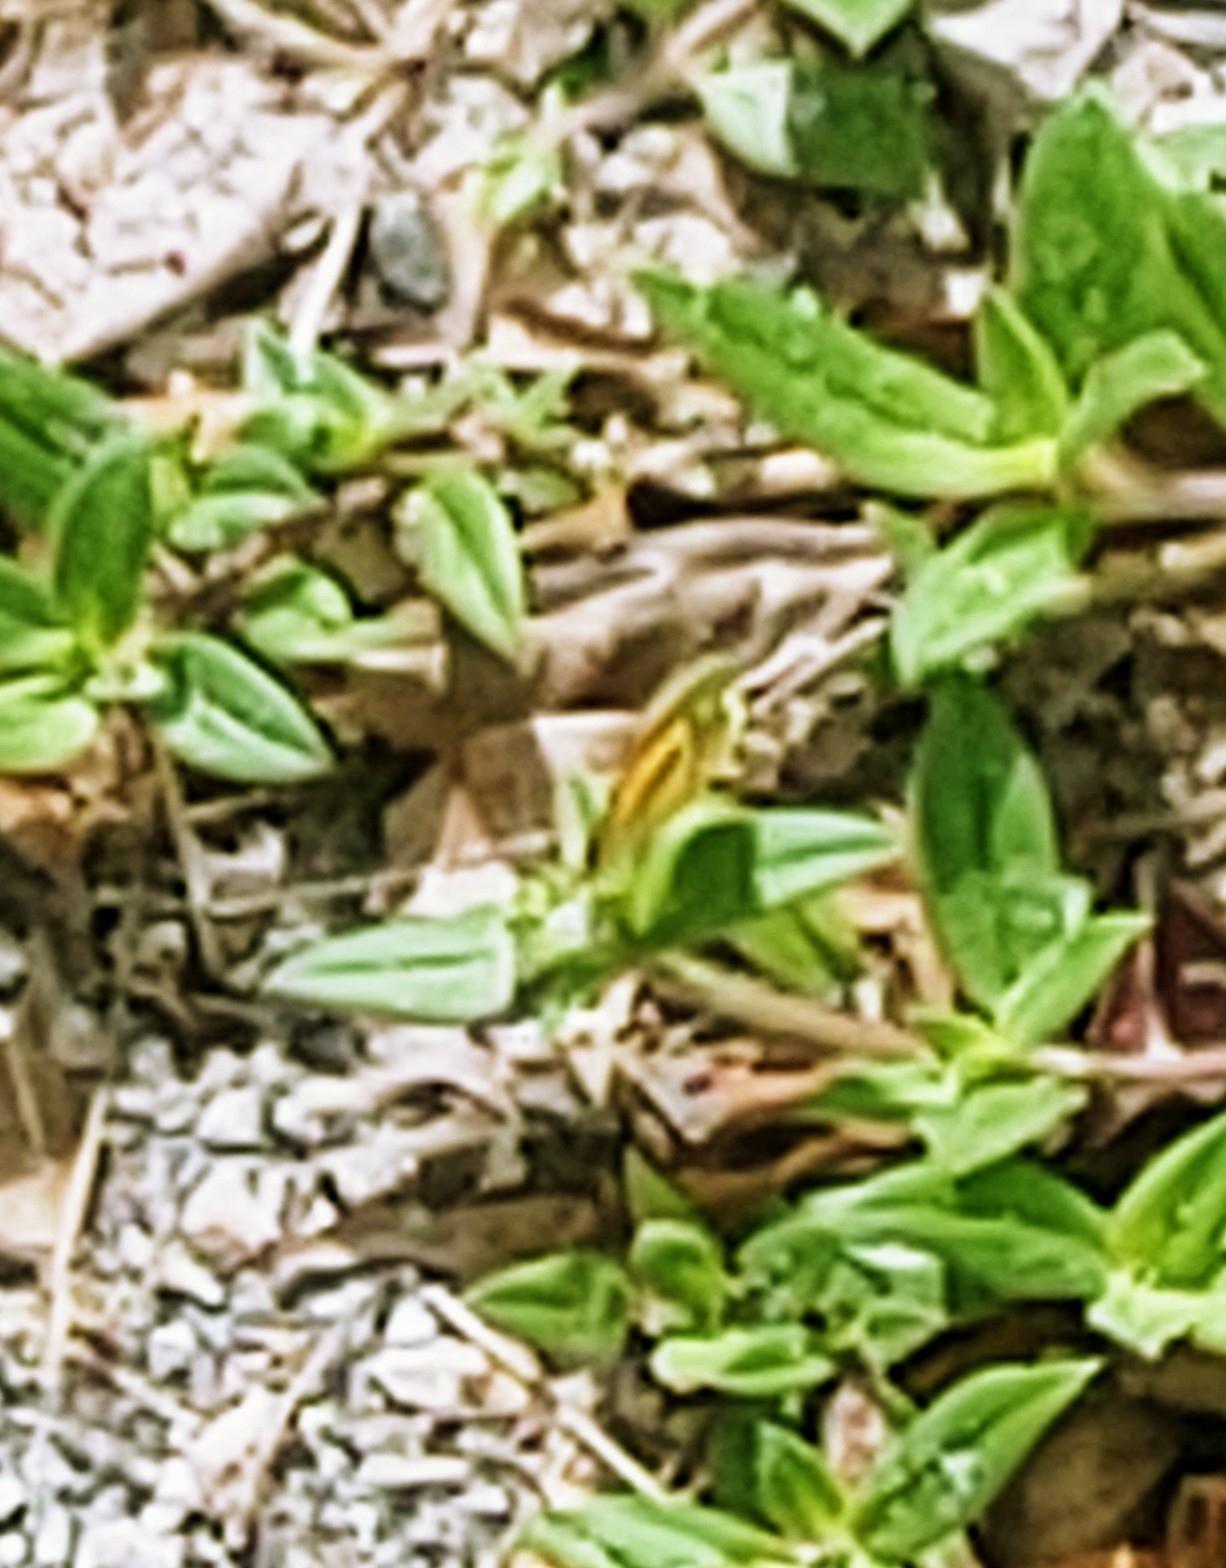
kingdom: Animalia
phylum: Arthropoda
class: Insecta
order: Lepidoptera
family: Pieridae
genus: Nathalis
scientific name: Nathalis iole
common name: Dainty sulphur
